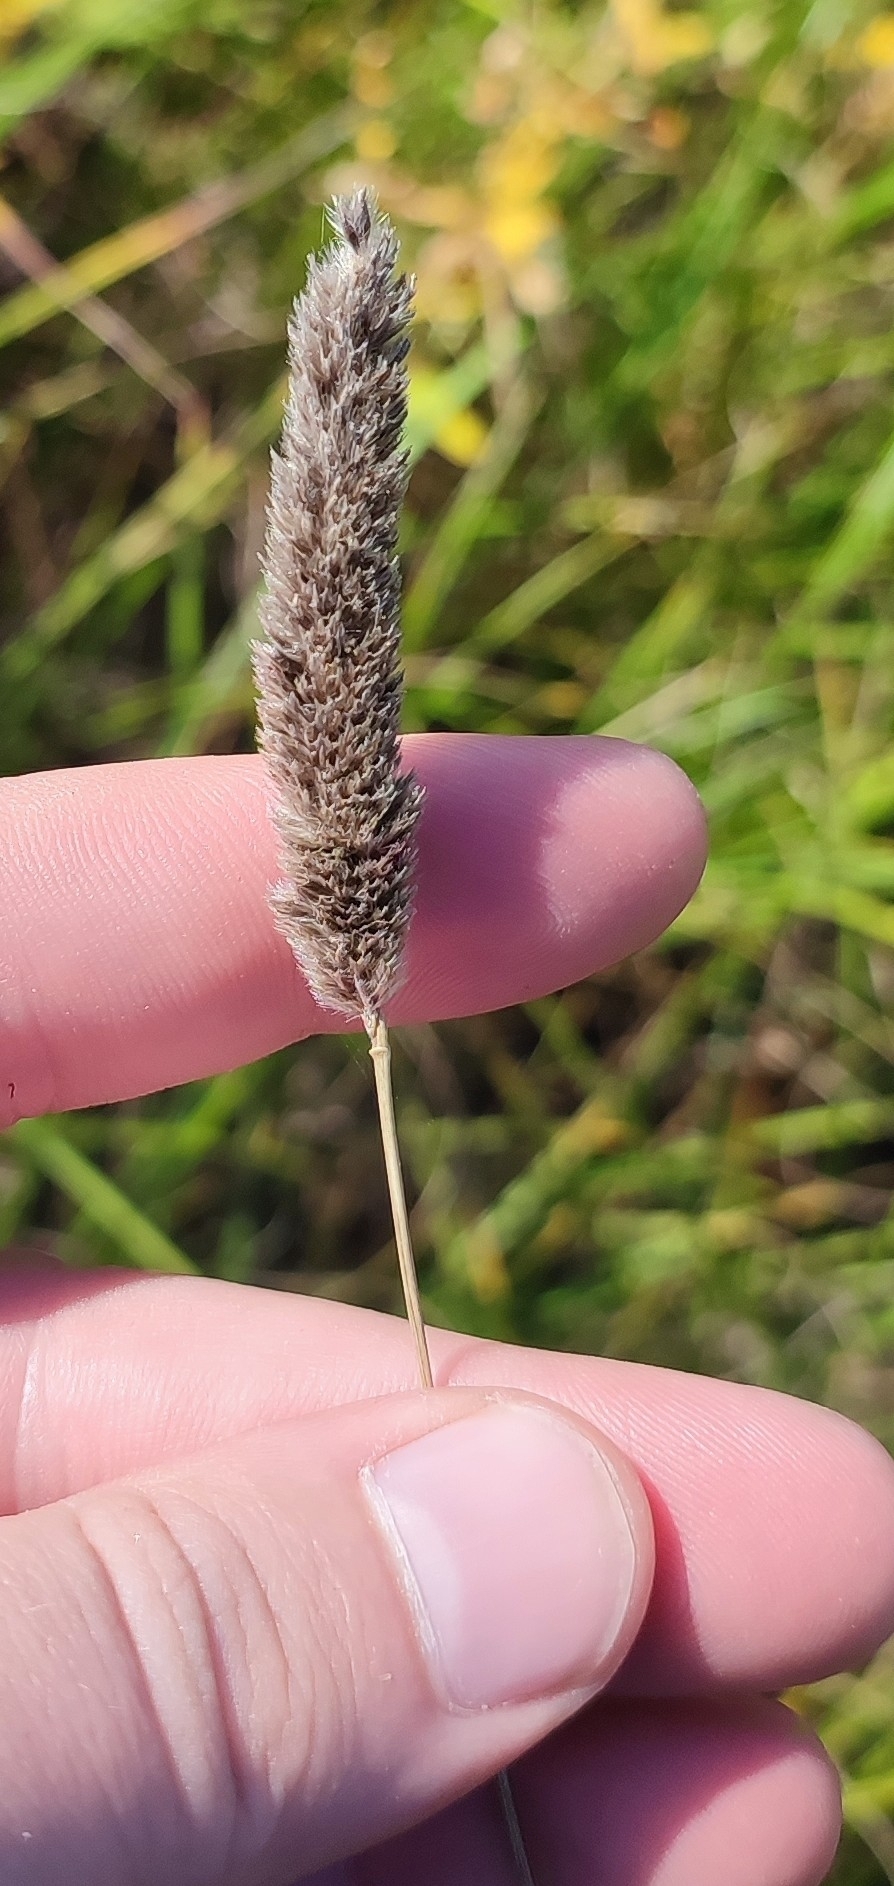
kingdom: Plantae
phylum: Tracheophyta
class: Liliopsida
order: Poales
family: Poaceae
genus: Alopecurus
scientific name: Alopecurus arundinaceus
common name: Creeping meadow foxtail
